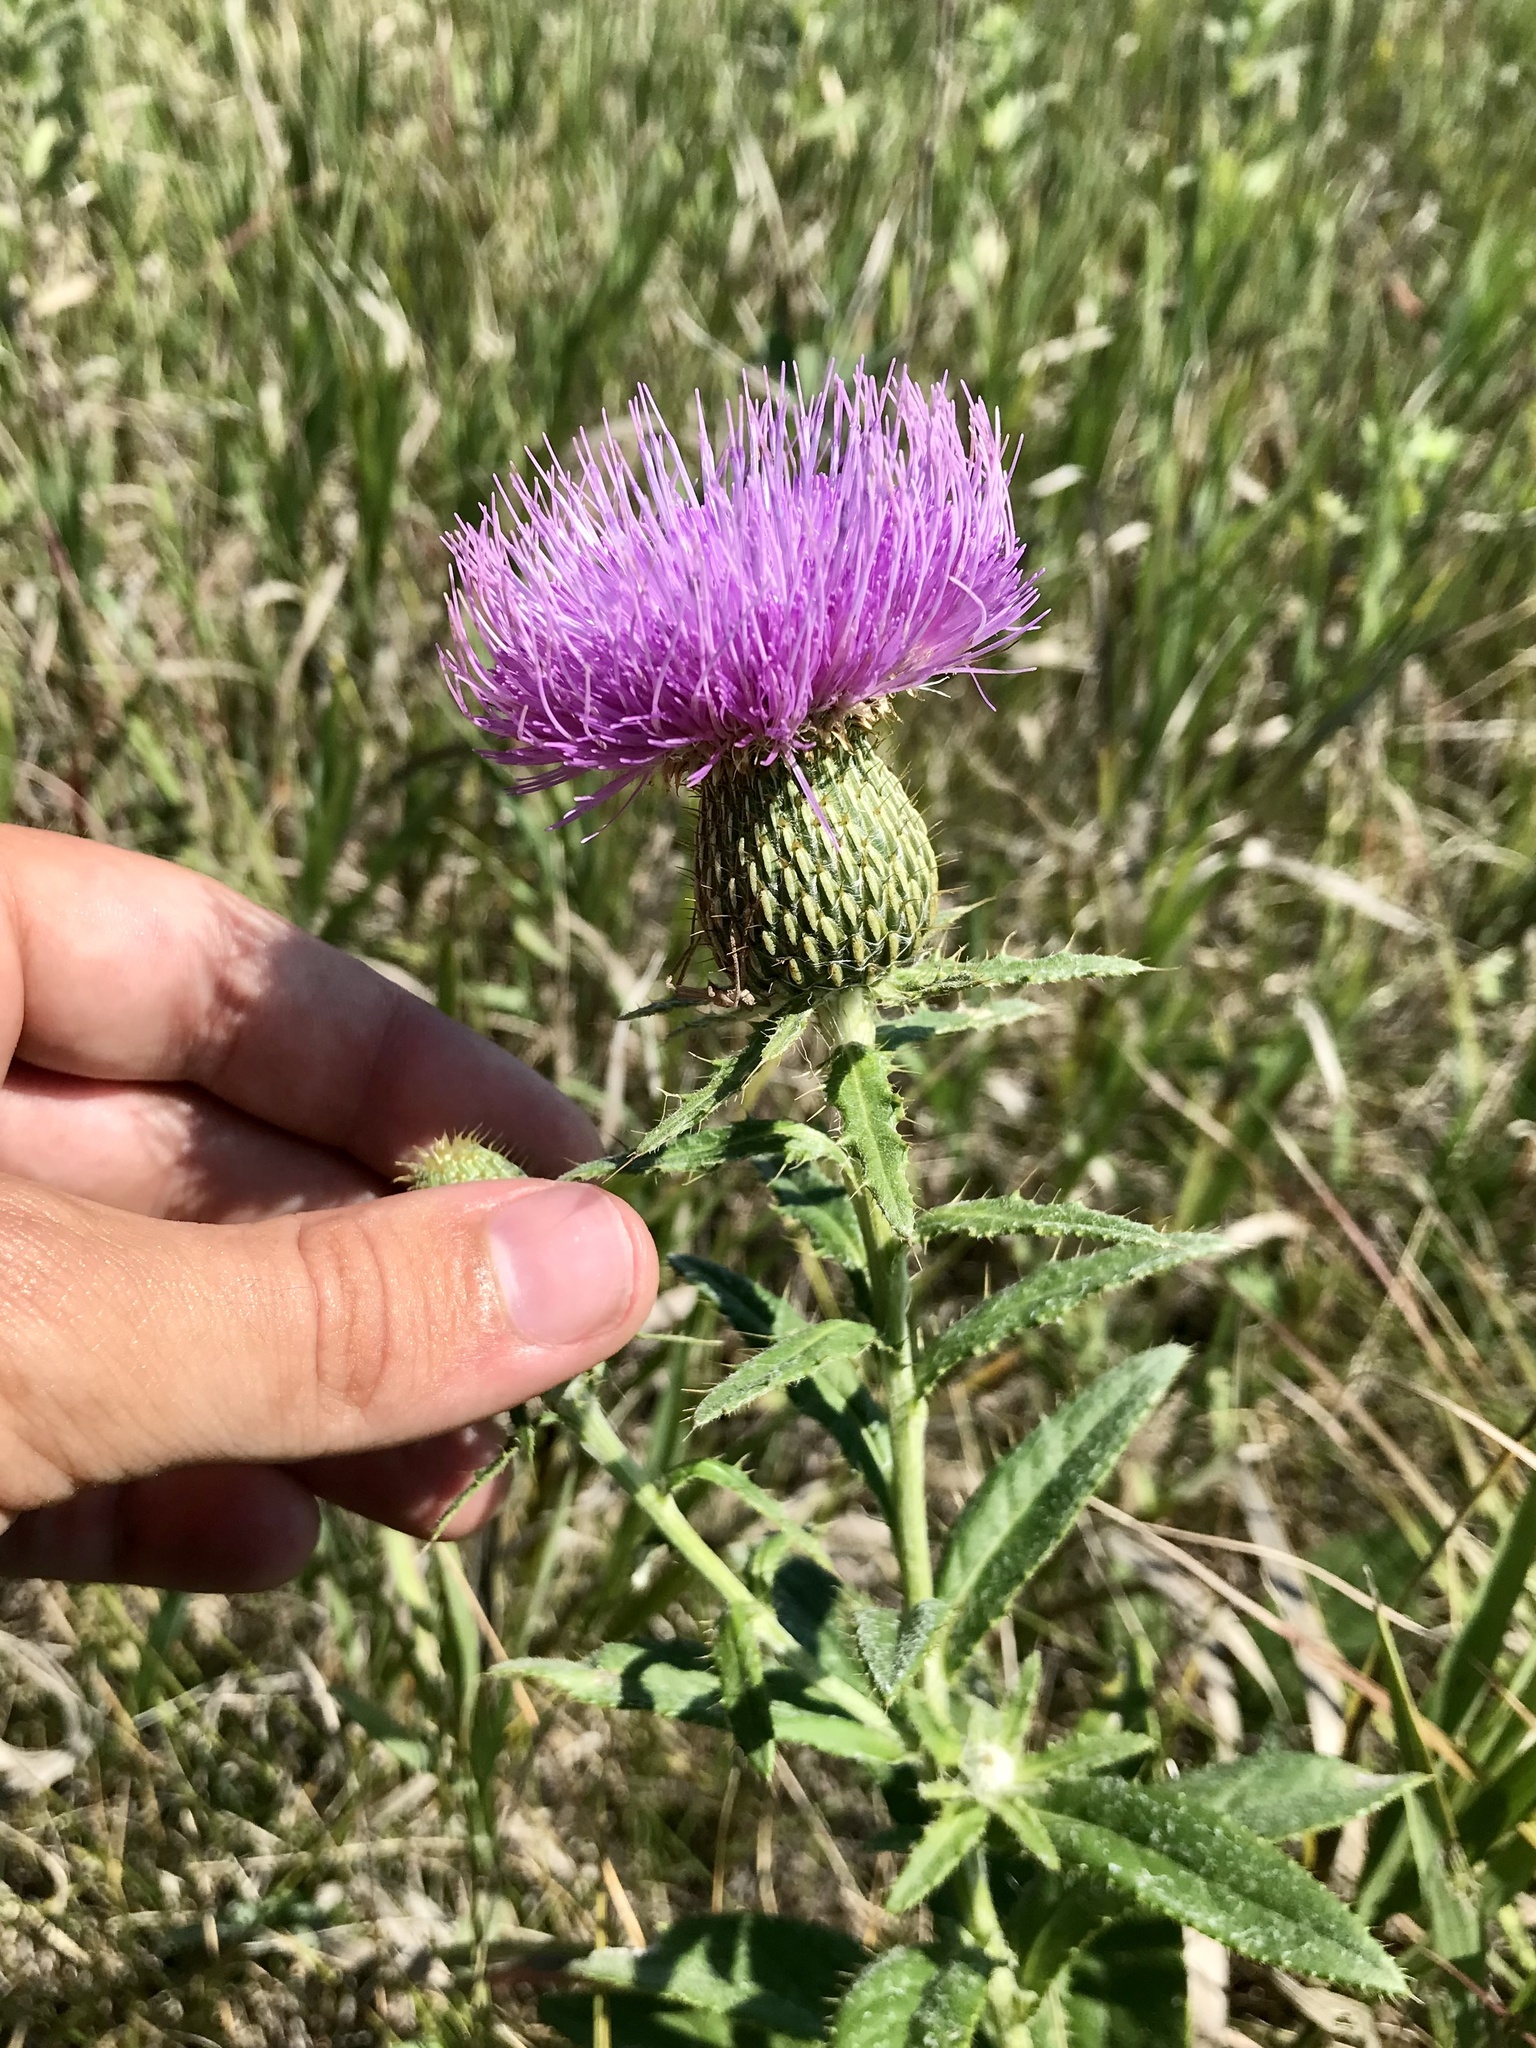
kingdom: Plantae
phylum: Tracheophyta
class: Magnoliopsida
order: Asterales
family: Asteraceae
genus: Cirsium
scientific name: Cirsium altissimum
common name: Roadside thistle
